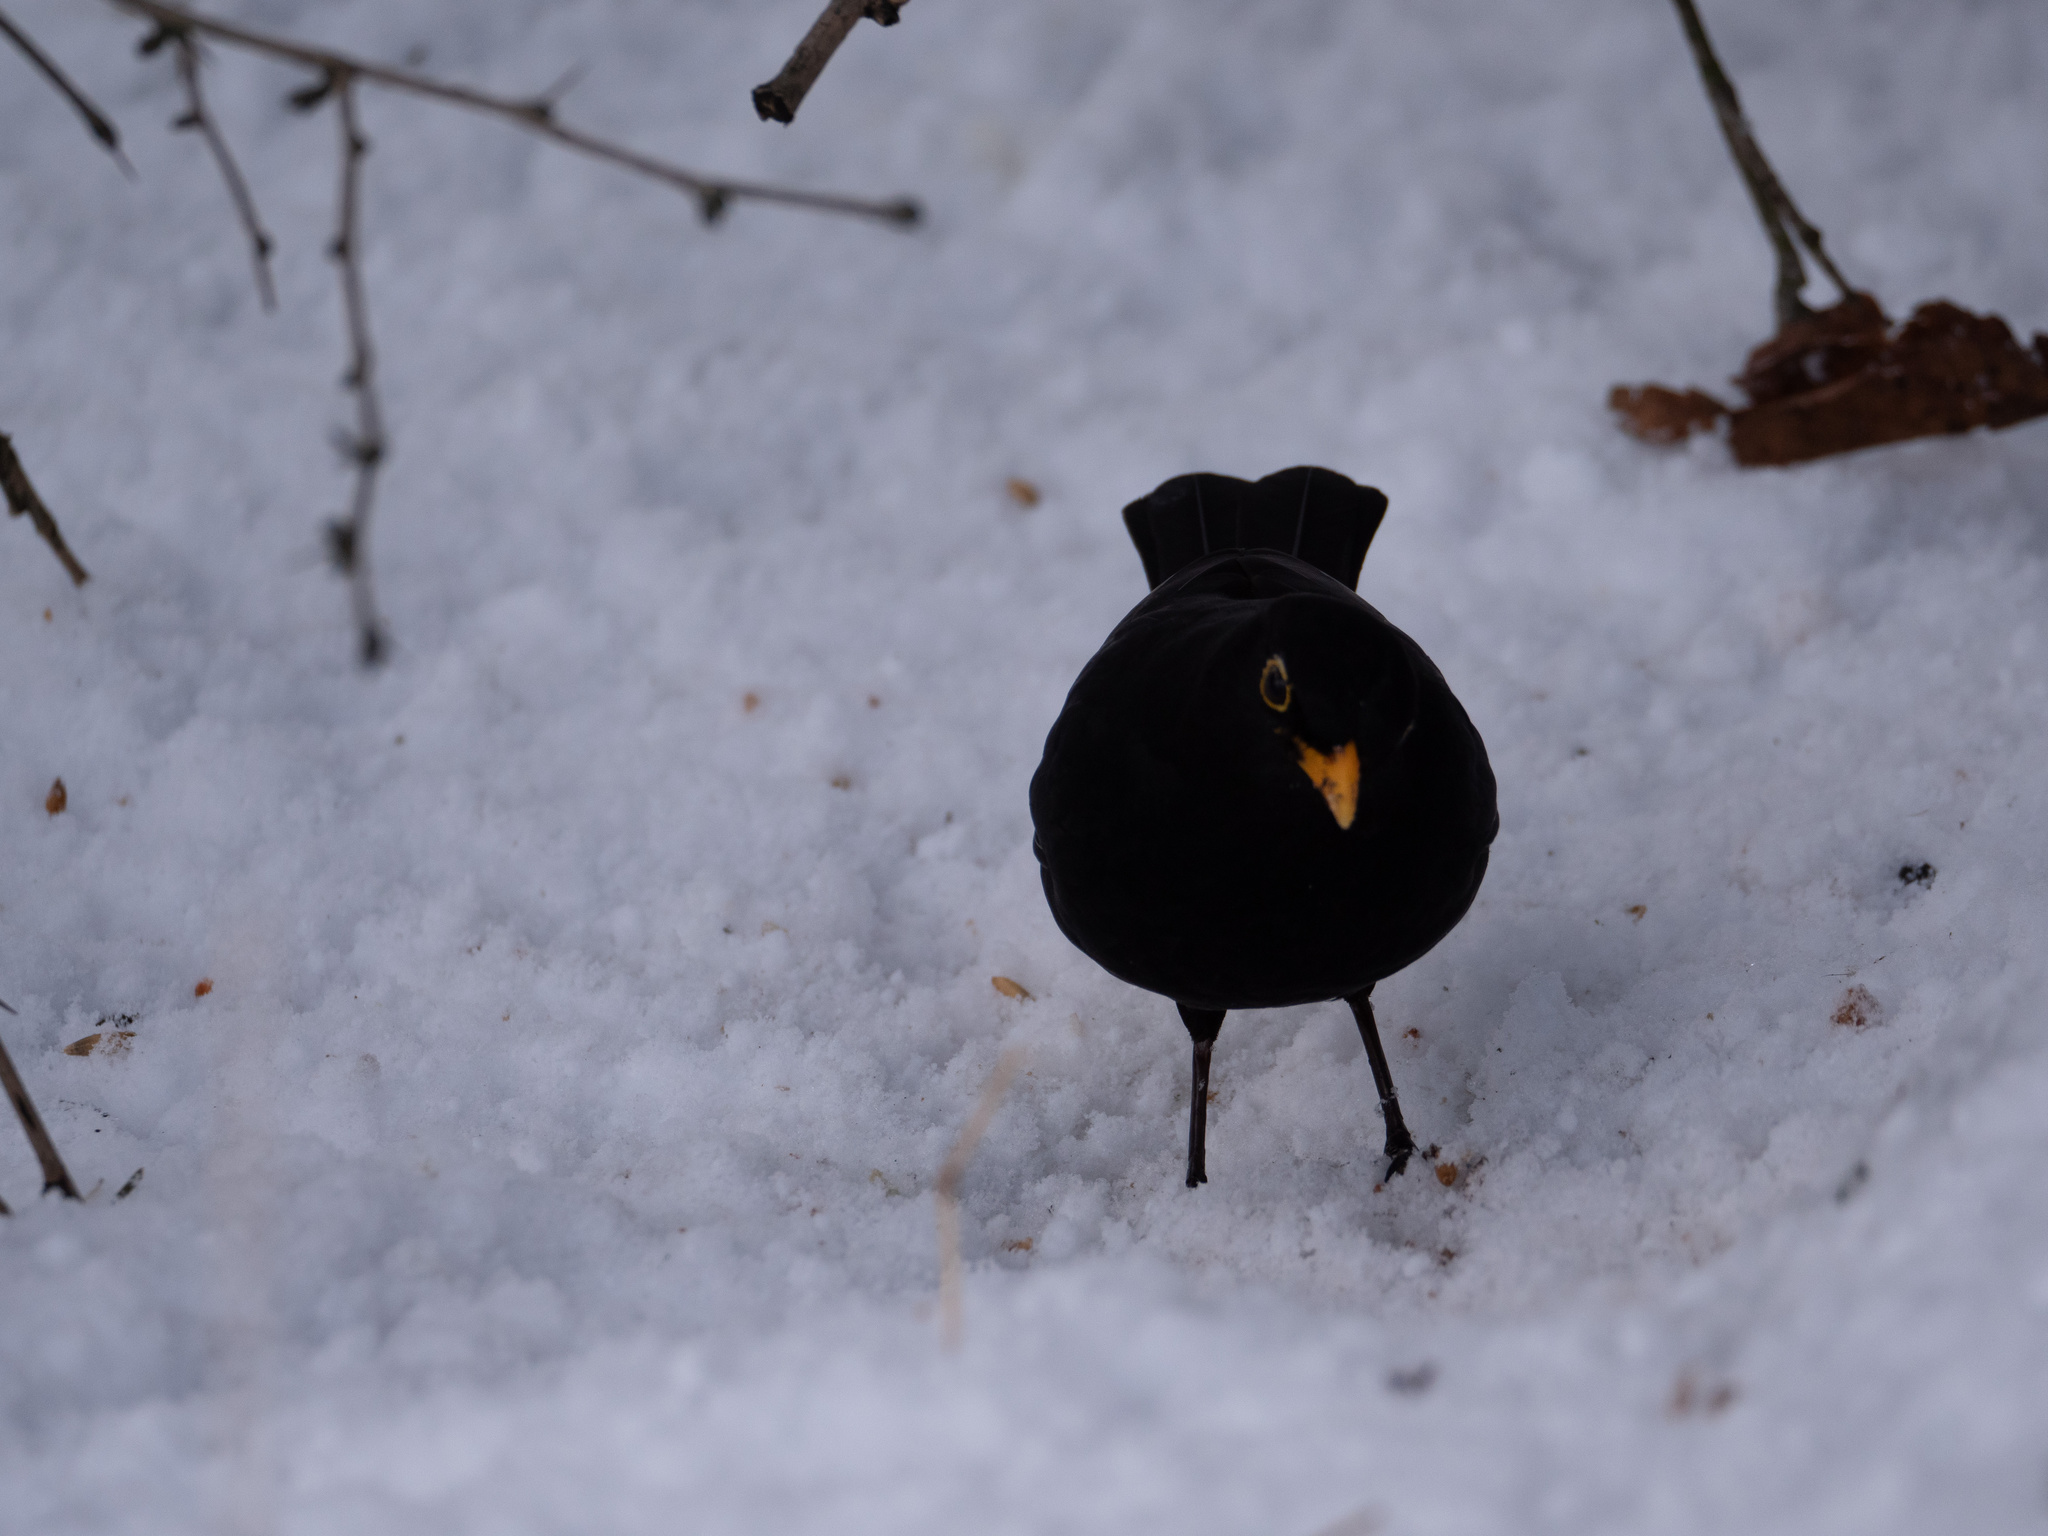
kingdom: Animalia
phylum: Chordata
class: Aves
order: Passeriformes
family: Turdidae
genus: Turdus
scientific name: Turdus merula
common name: Common blackbird
